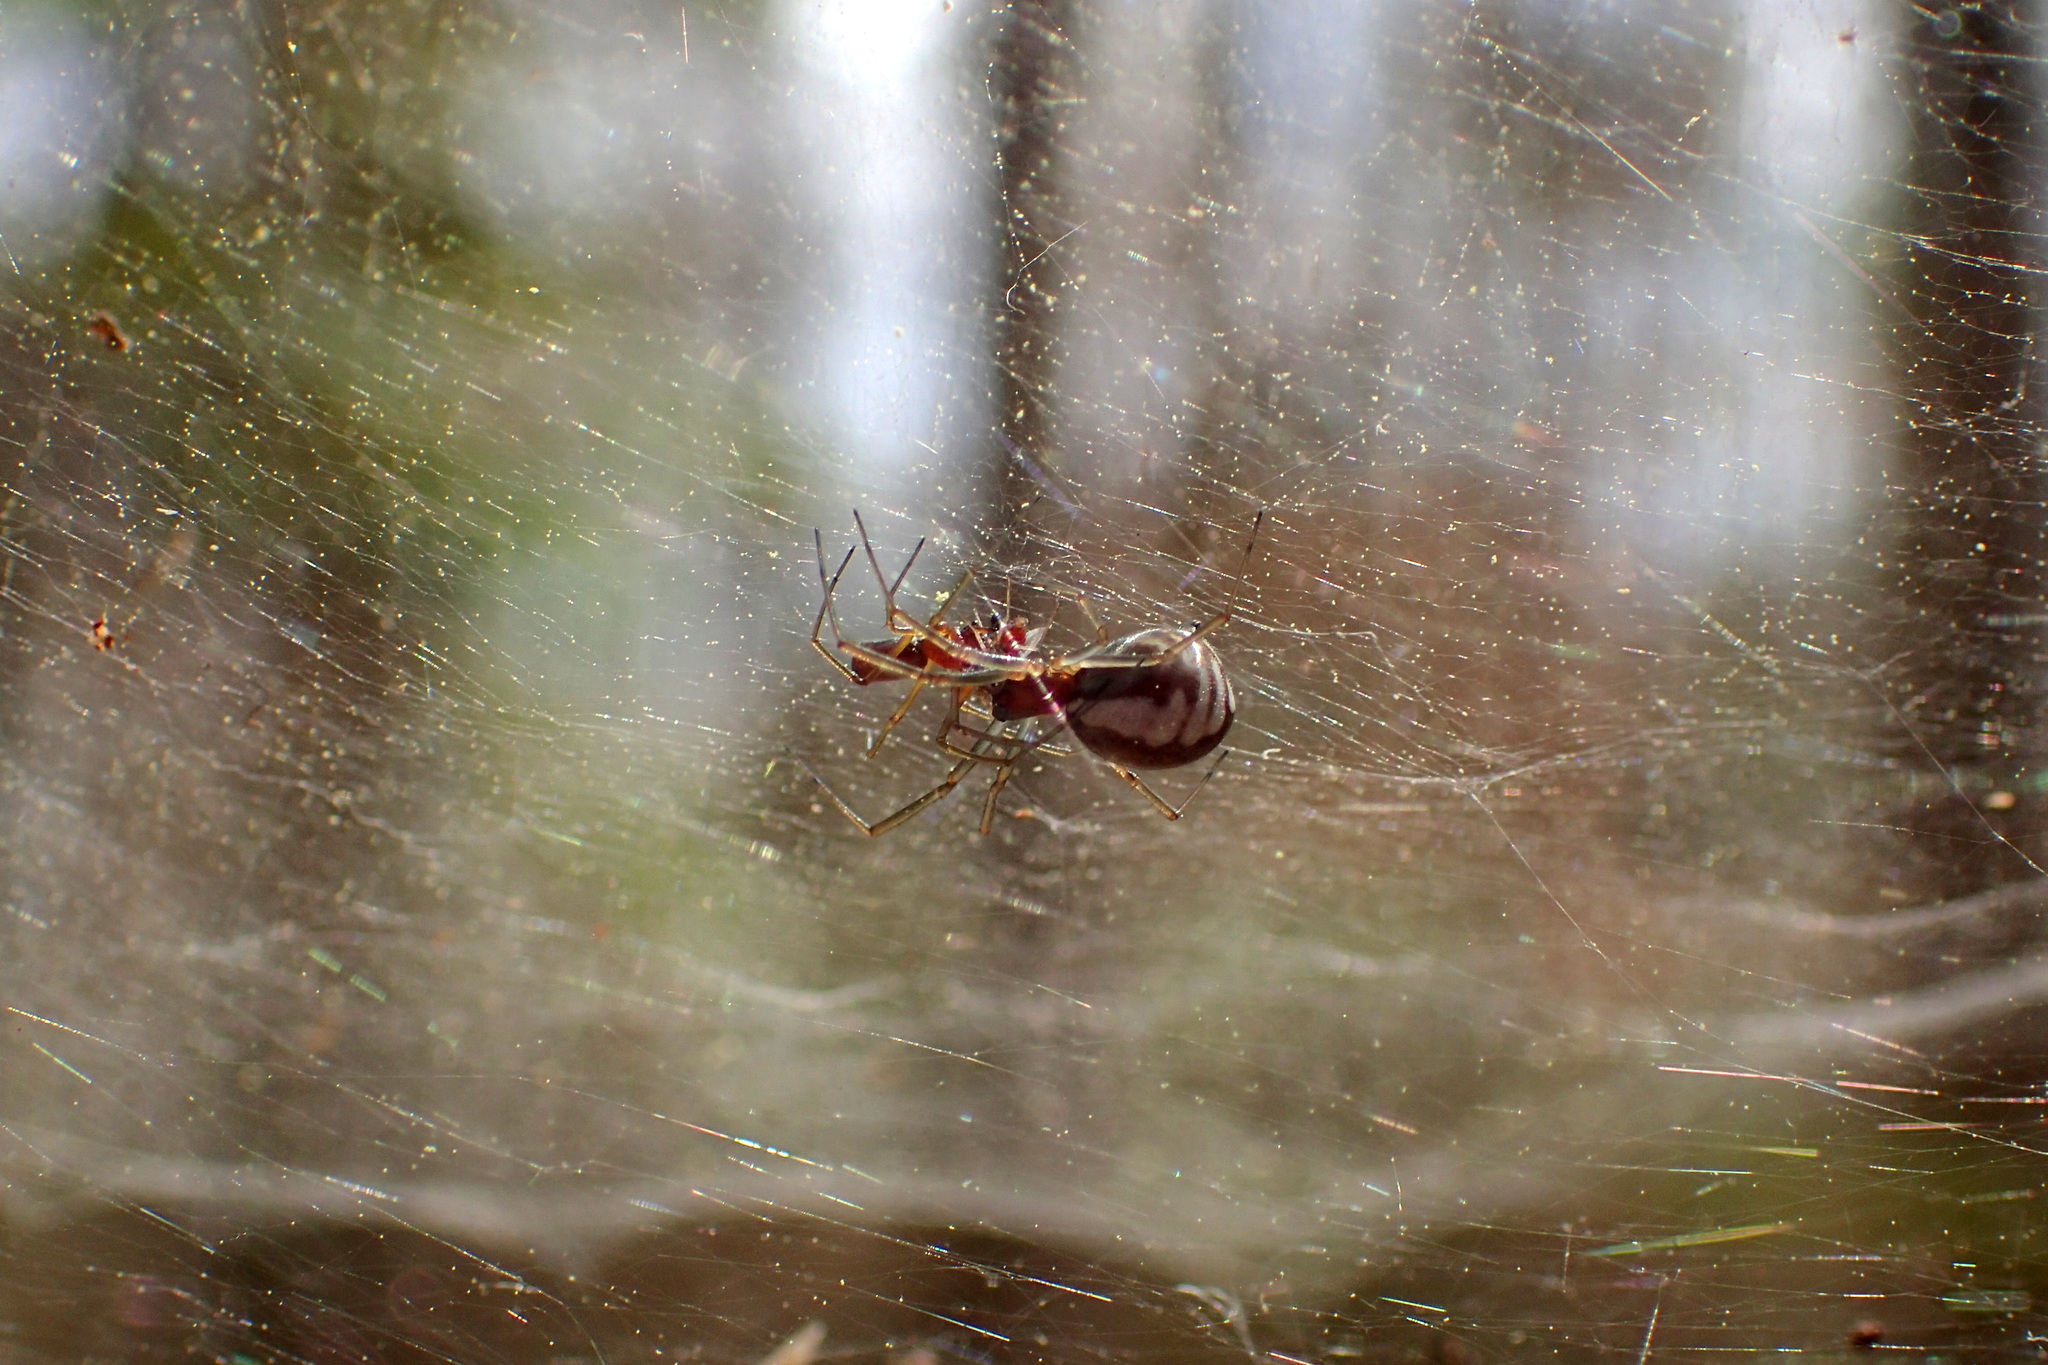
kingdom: Animalia
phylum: Arthropoda
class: Arachnida
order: Araneae
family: Linyphiidae
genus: Frontinella
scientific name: Frontinella pyramitela
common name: Bowl-and-doily spider
